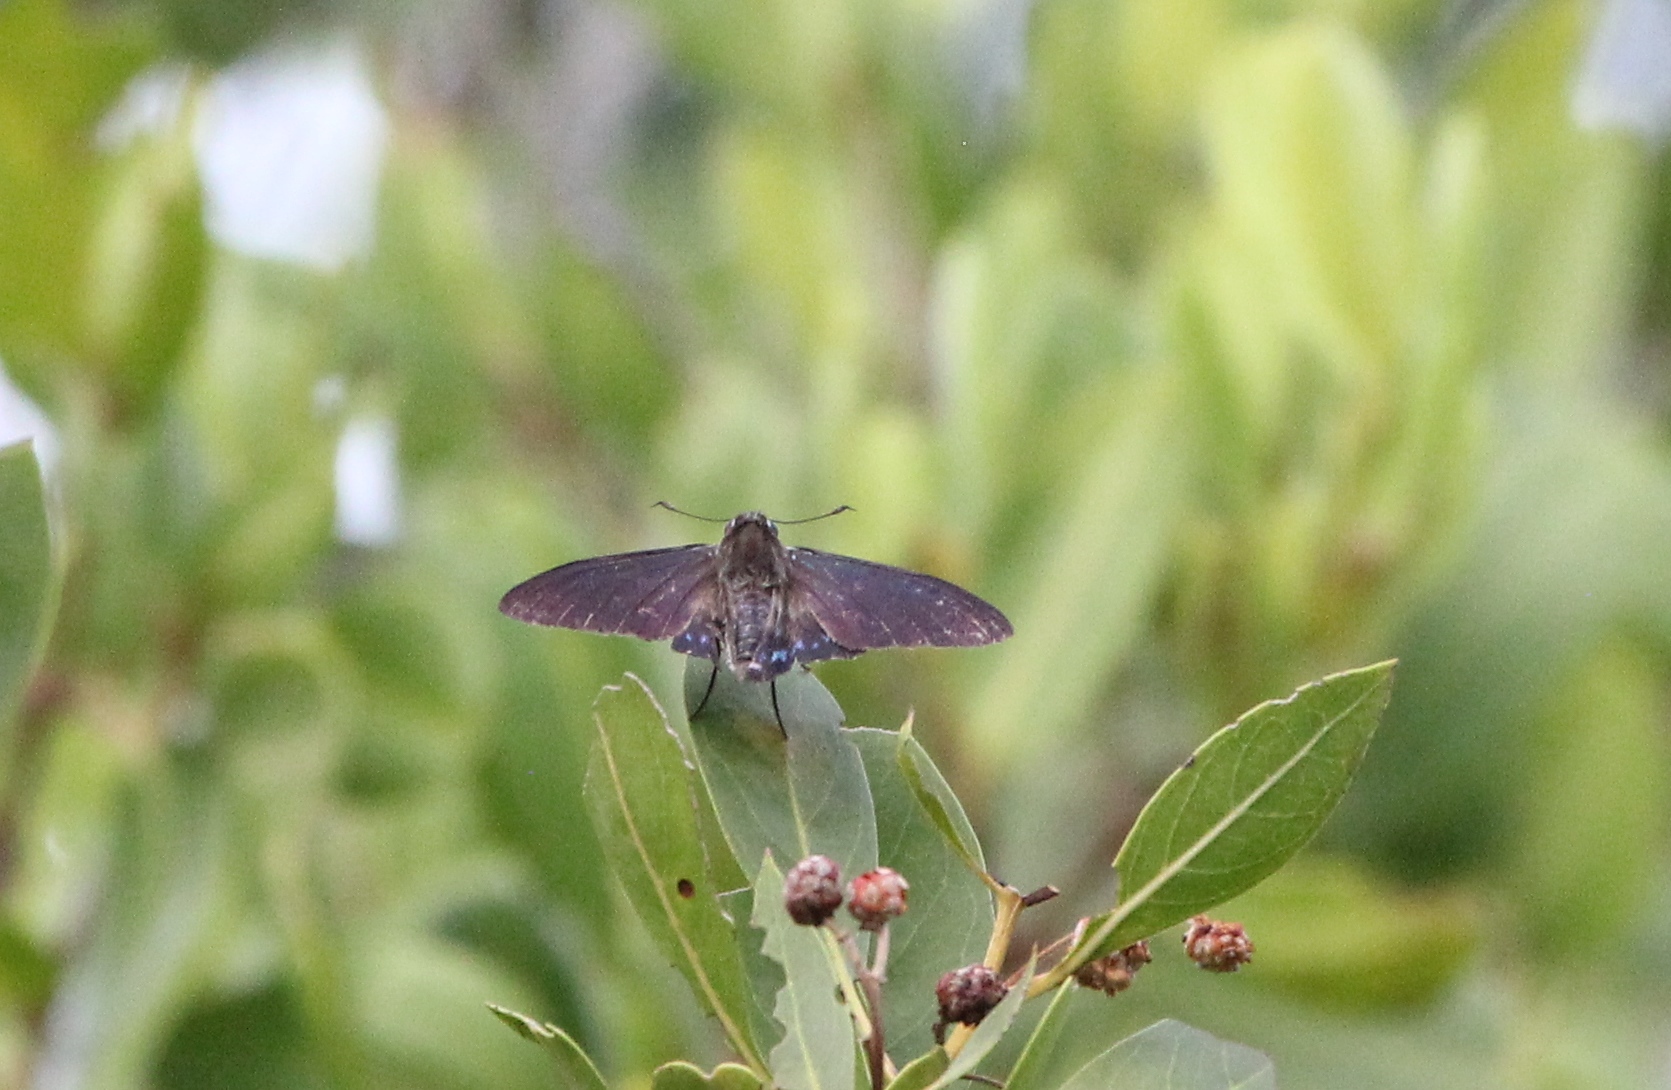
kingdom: Animalia
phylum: Arthropoda
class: Insecta
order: Lepidoptera
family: Hesperiidae
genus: Phocides
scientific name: Phocides pigmalion
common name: Mangrove skipper
